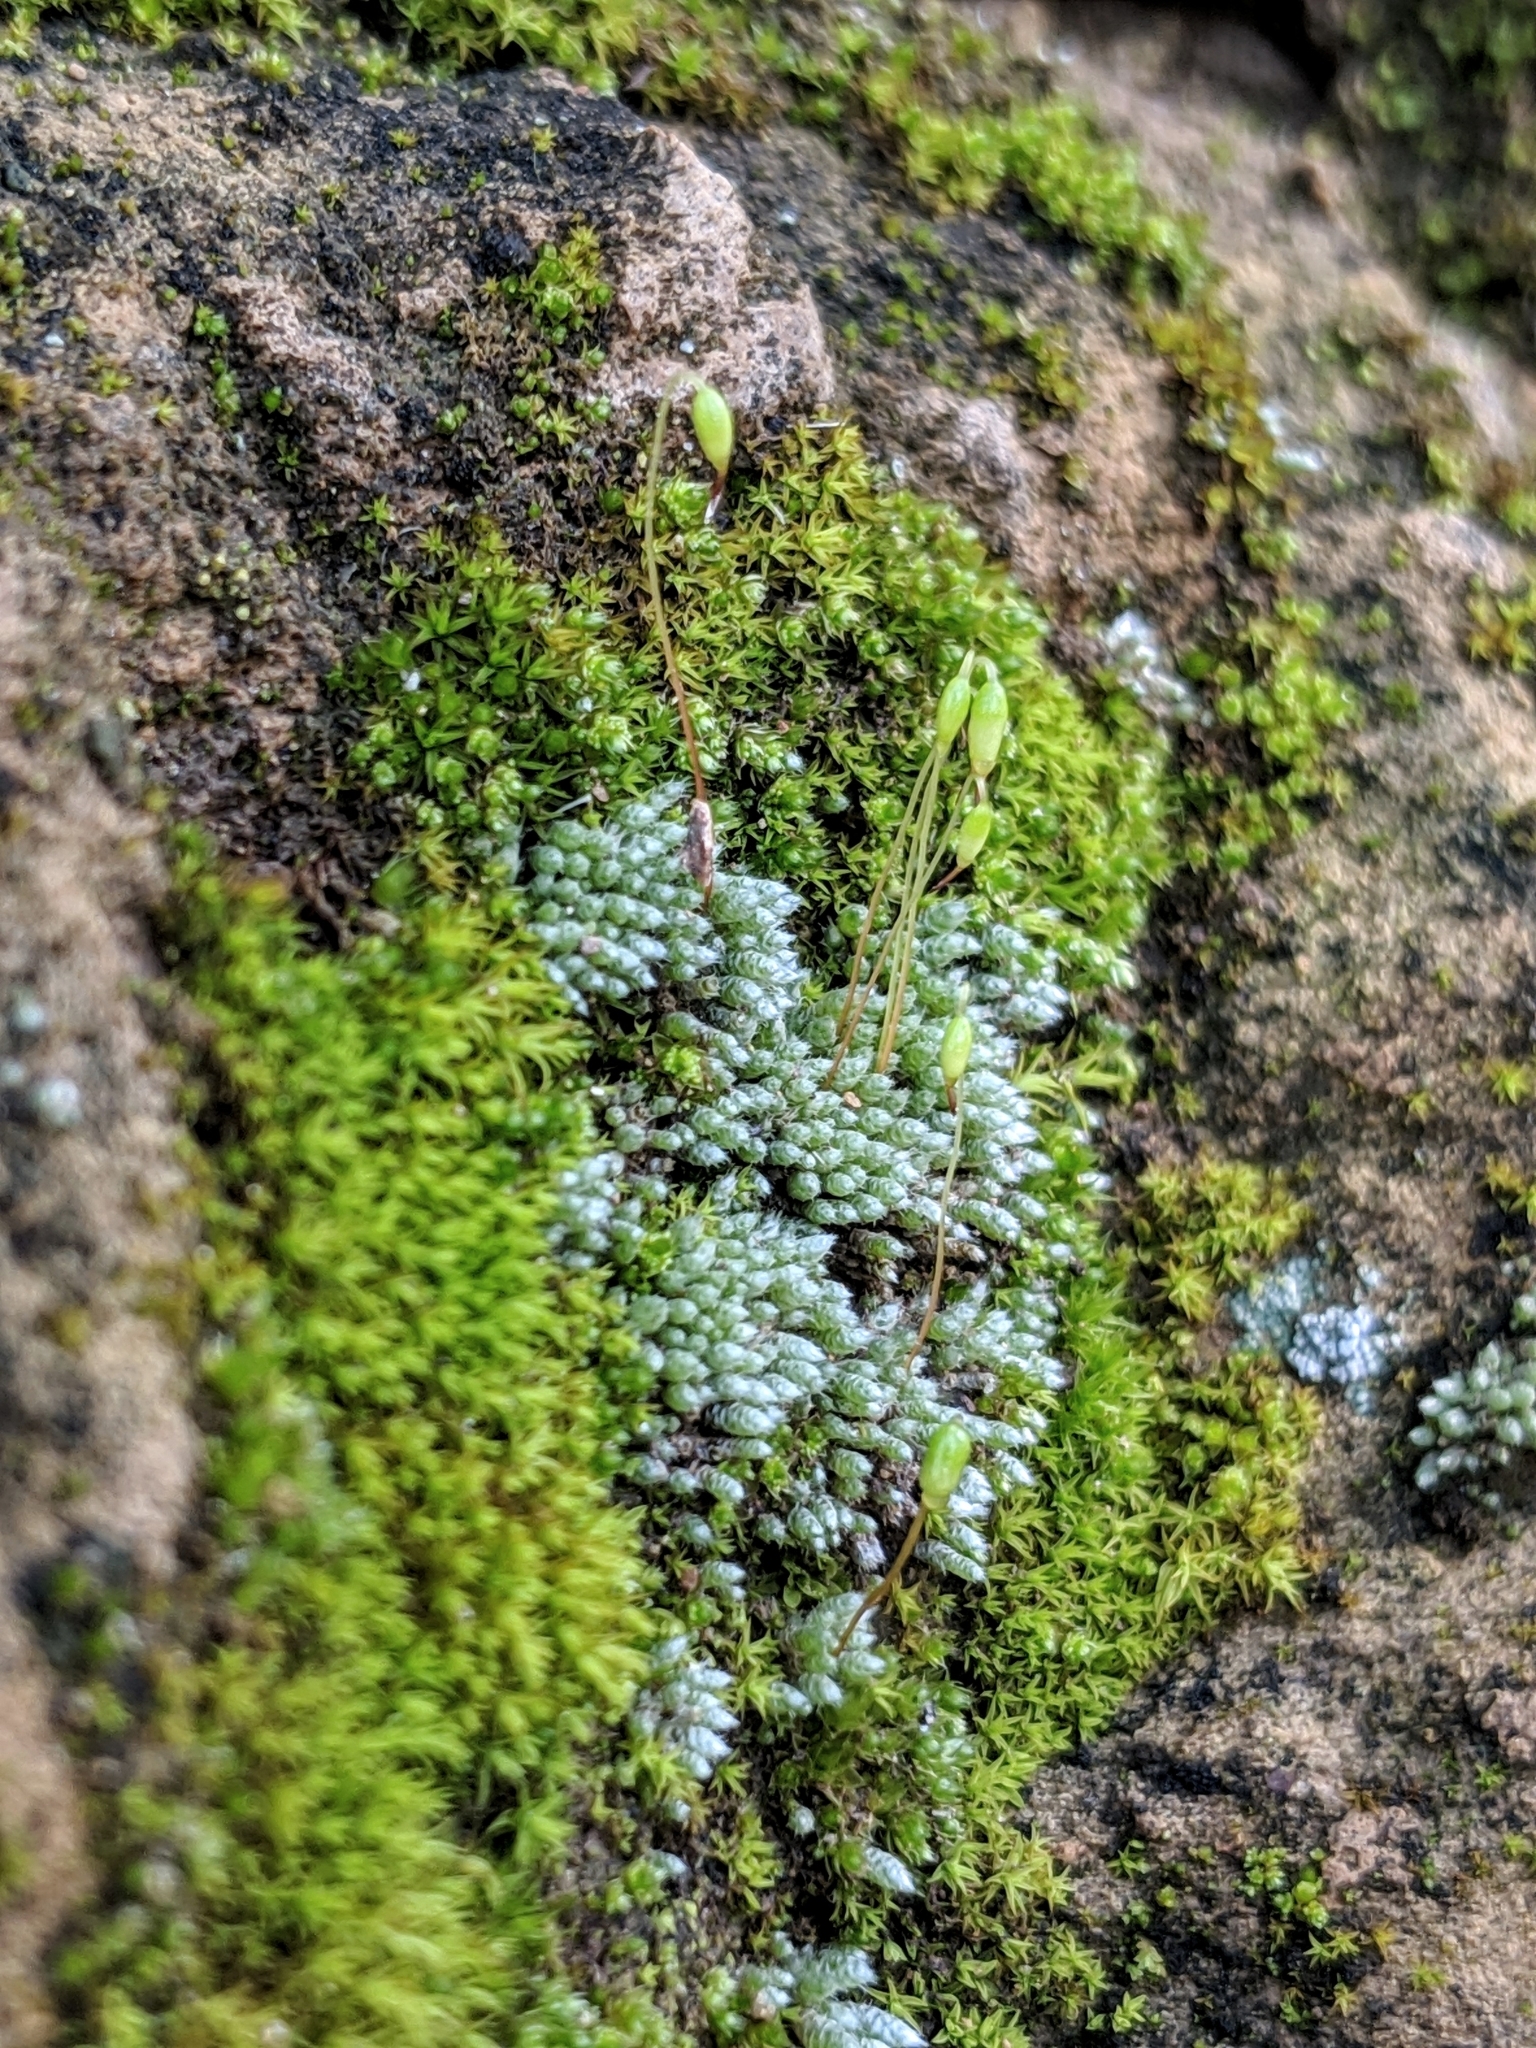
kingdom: Plantae
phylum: Bryophyta
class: Bryopsida
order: Bryales
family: Bryaceae
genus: Bryum
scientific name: Bryum argenteum
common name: Silver-moss
